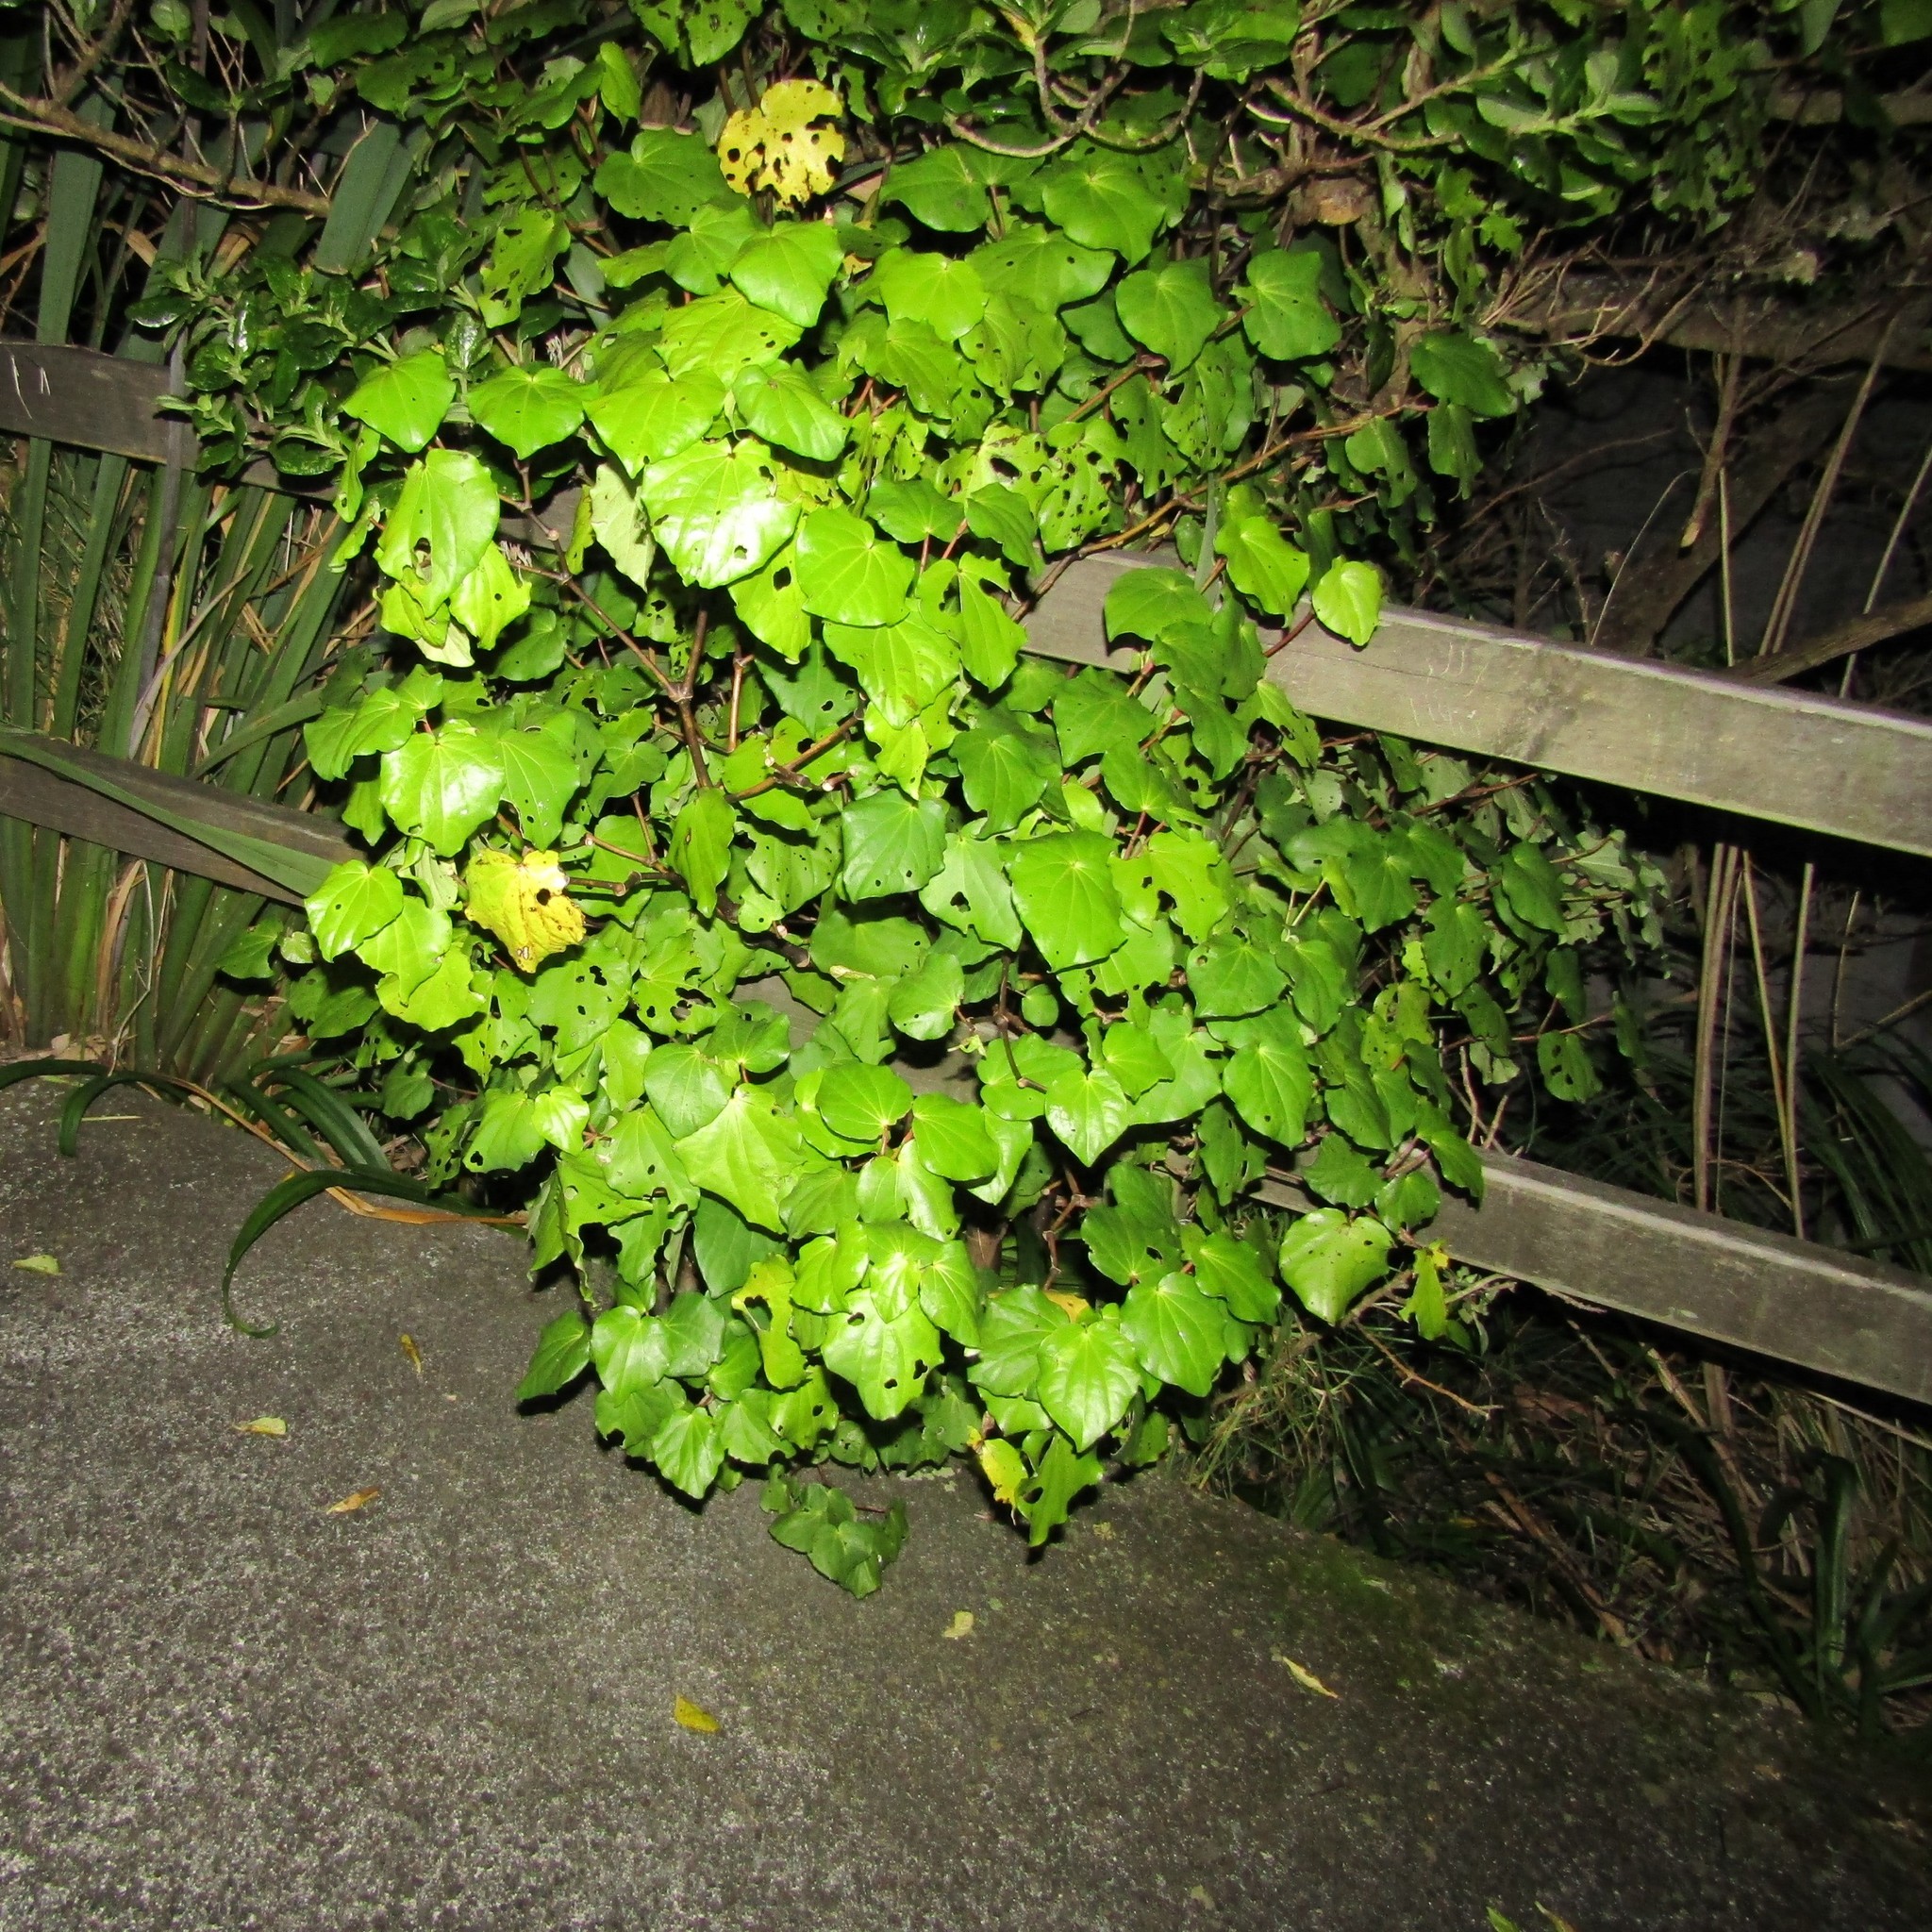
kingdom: Plantae
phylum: Tracheophyta
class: Magnoliopsida
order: Piperales
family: Piperaceae
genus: Macropiper
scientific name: Macropiper excelsum
